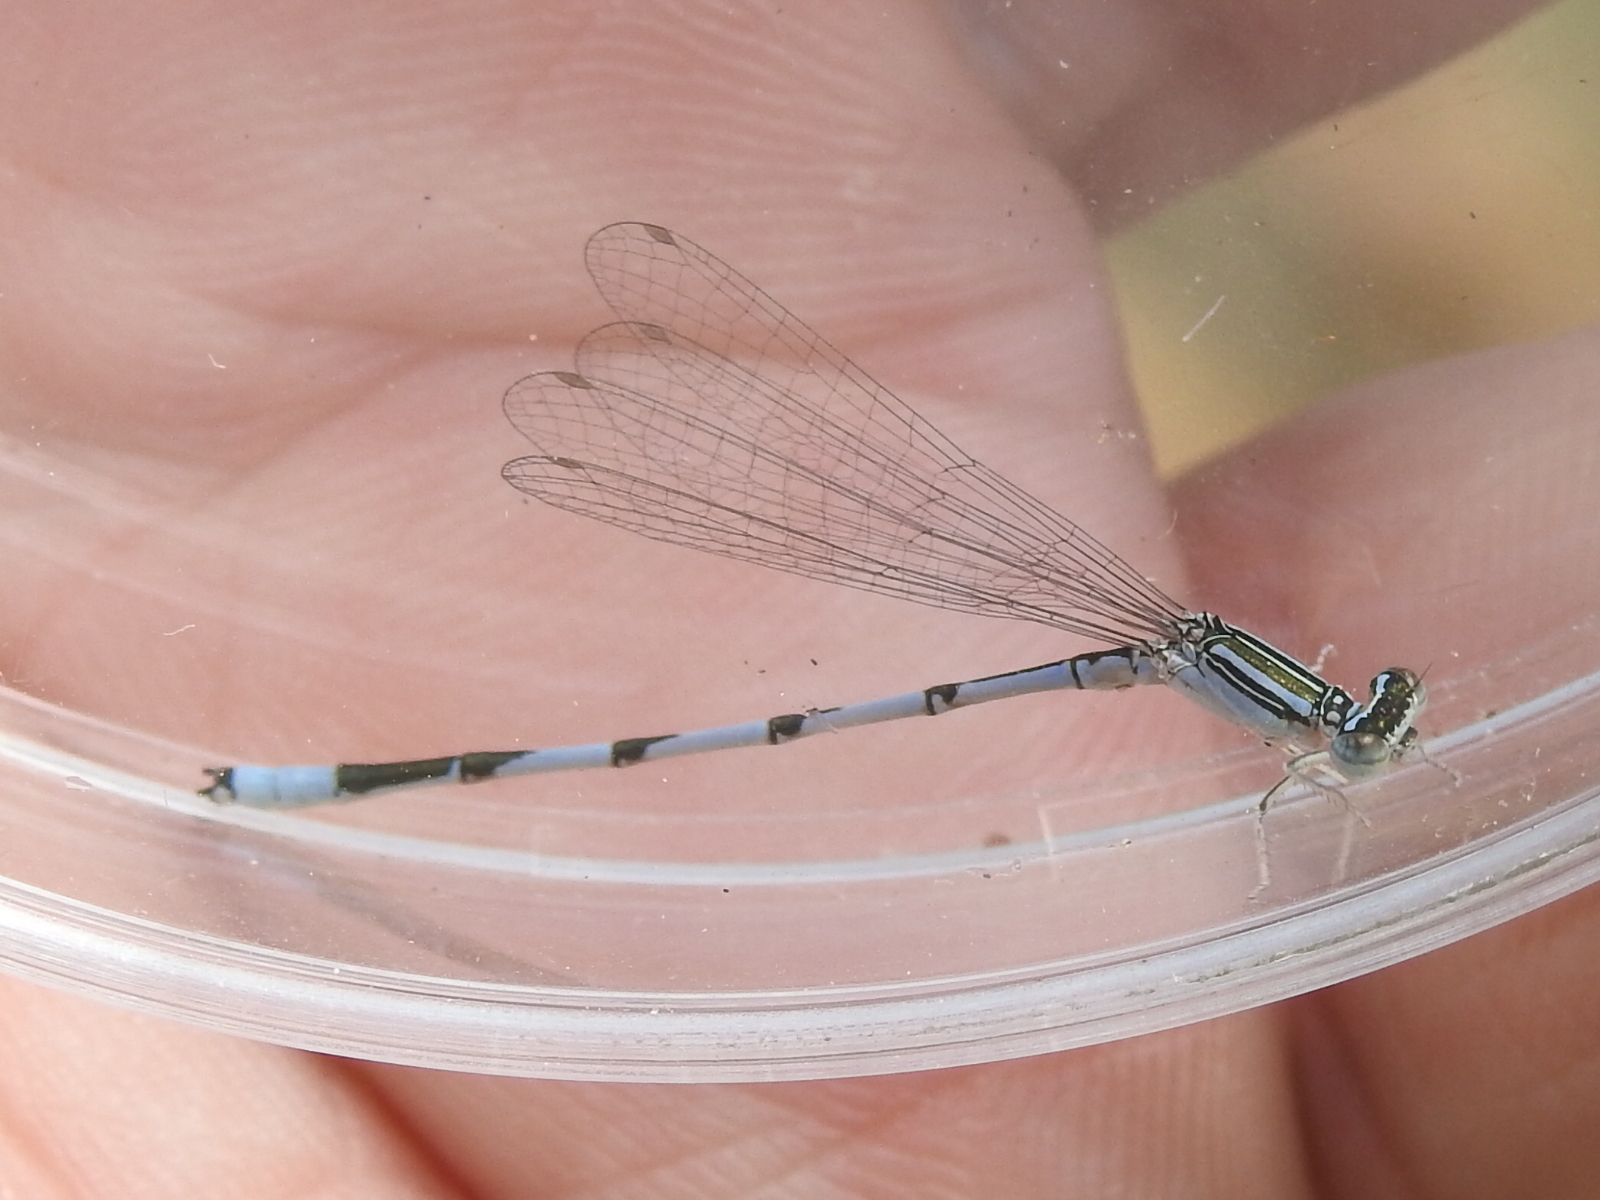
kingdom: Animalia
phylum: Arthropoda
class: Insecta
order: Odonata
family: Coenagrionidae
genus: Enallagma
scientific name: Enallagma basidens
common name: Double-striped bluet
